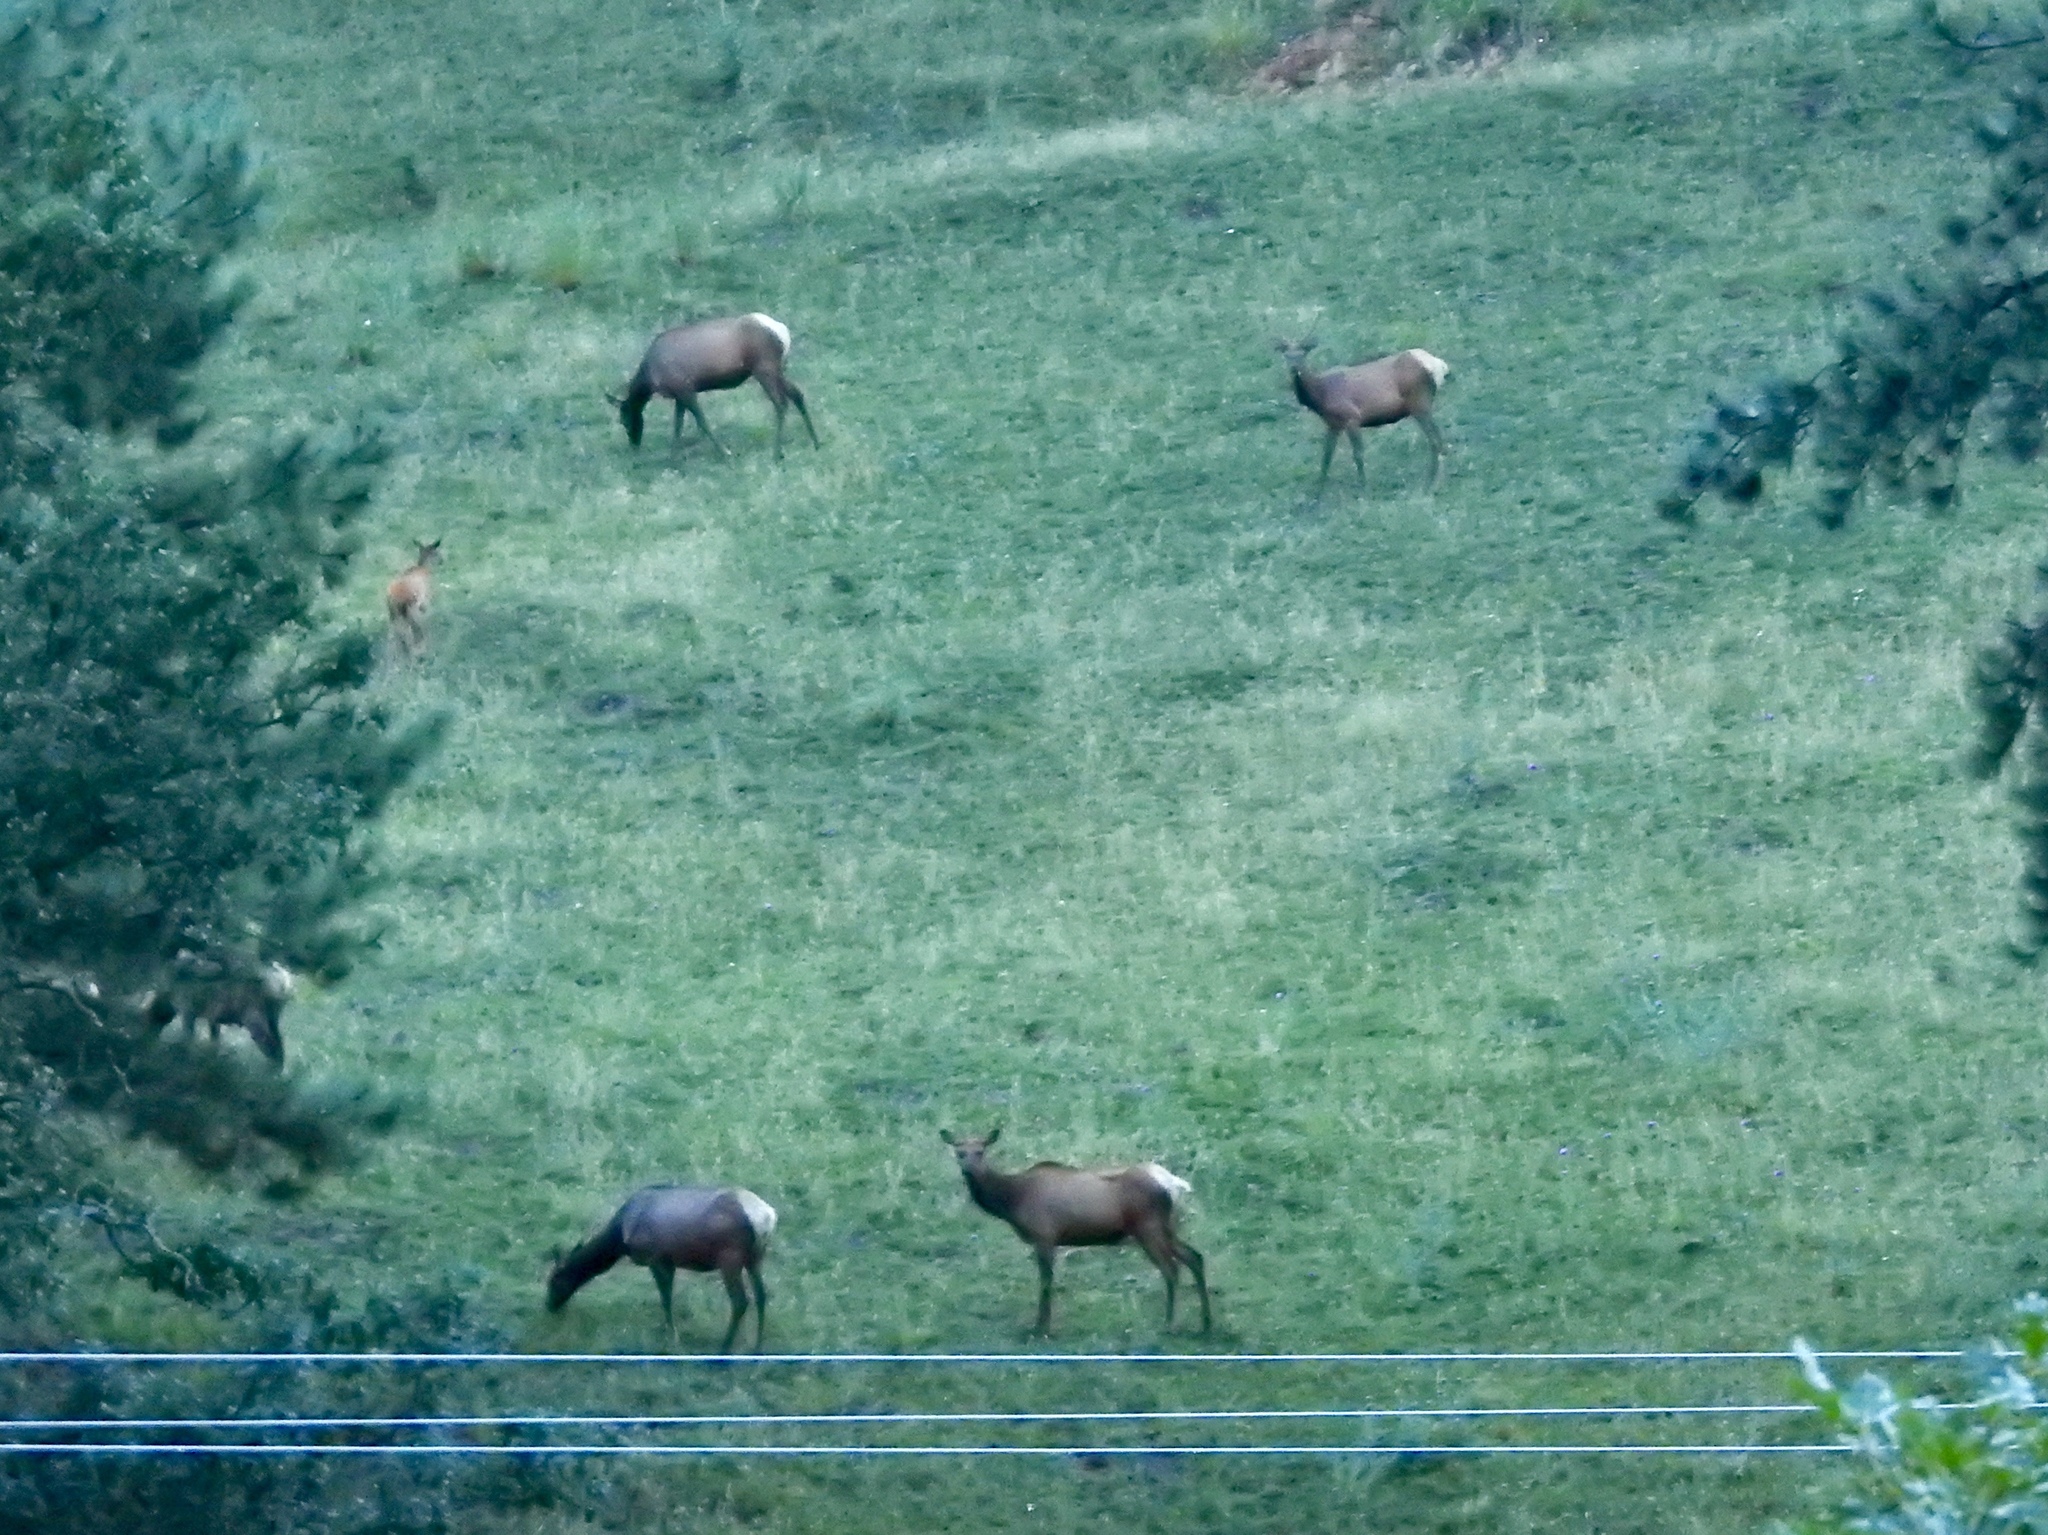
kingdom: Animalia
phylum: Chordata
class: Mammalia
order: Artiodactyla
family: Cervidae
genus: Cervus
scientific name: Cervus elaphus
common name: Red deer
